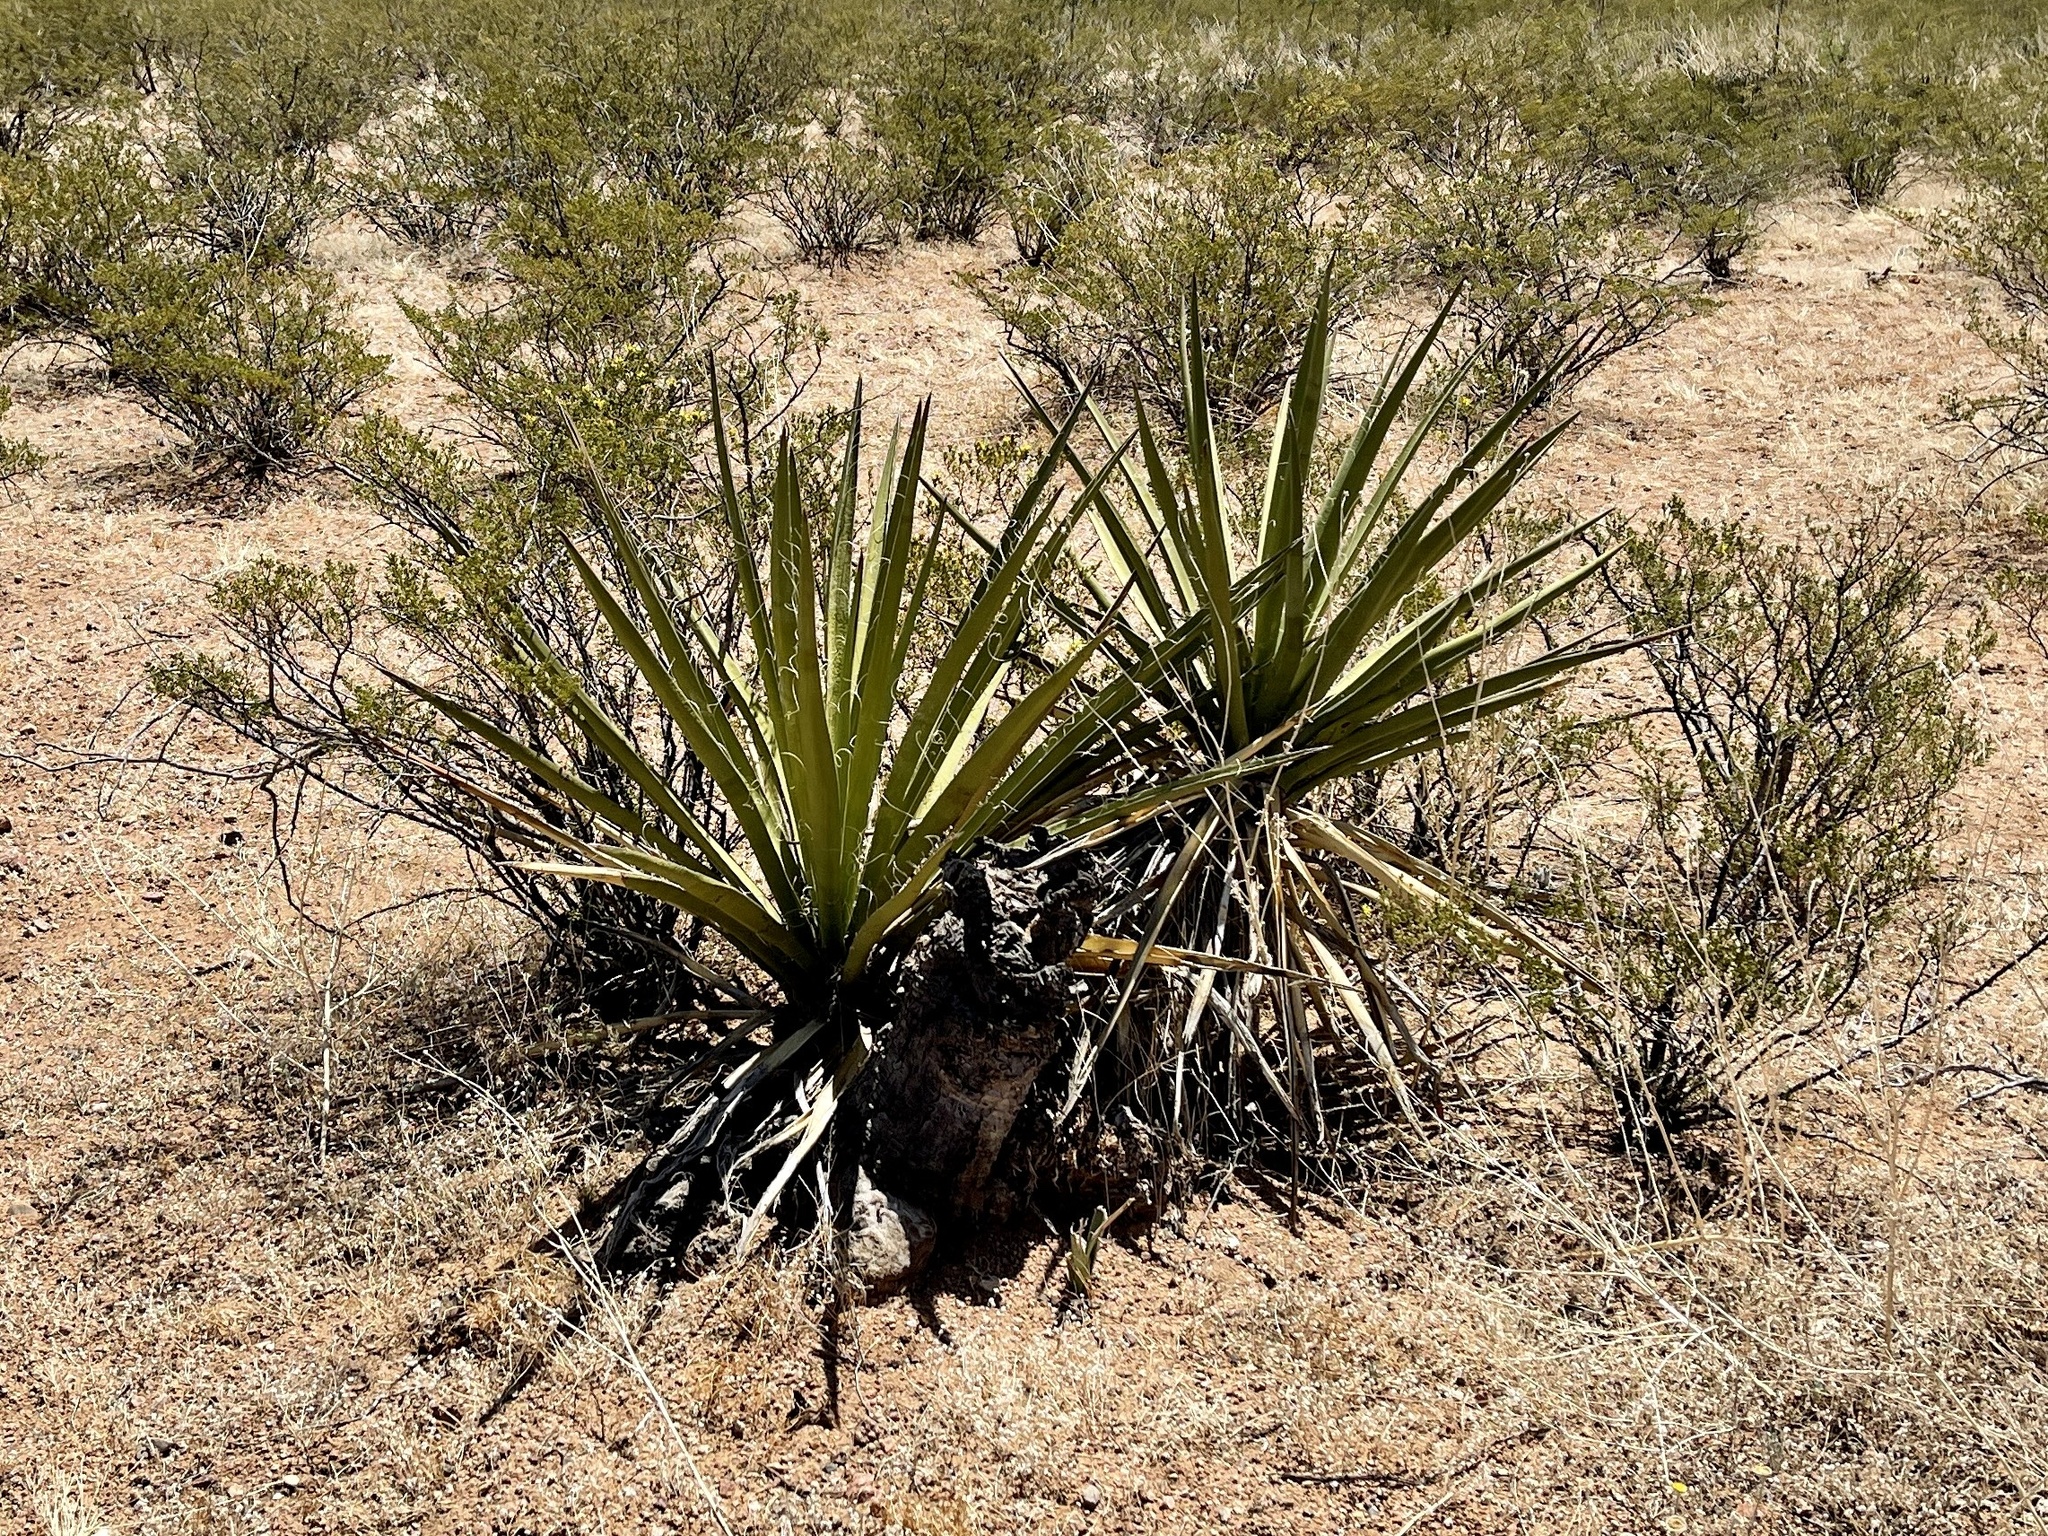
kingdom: Plantae
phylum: Tracheophyta
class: Liliopsida
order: Asparagales
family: Asparagaceae
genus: Yucca
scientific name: Yucca baccata
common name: Banana yucca
